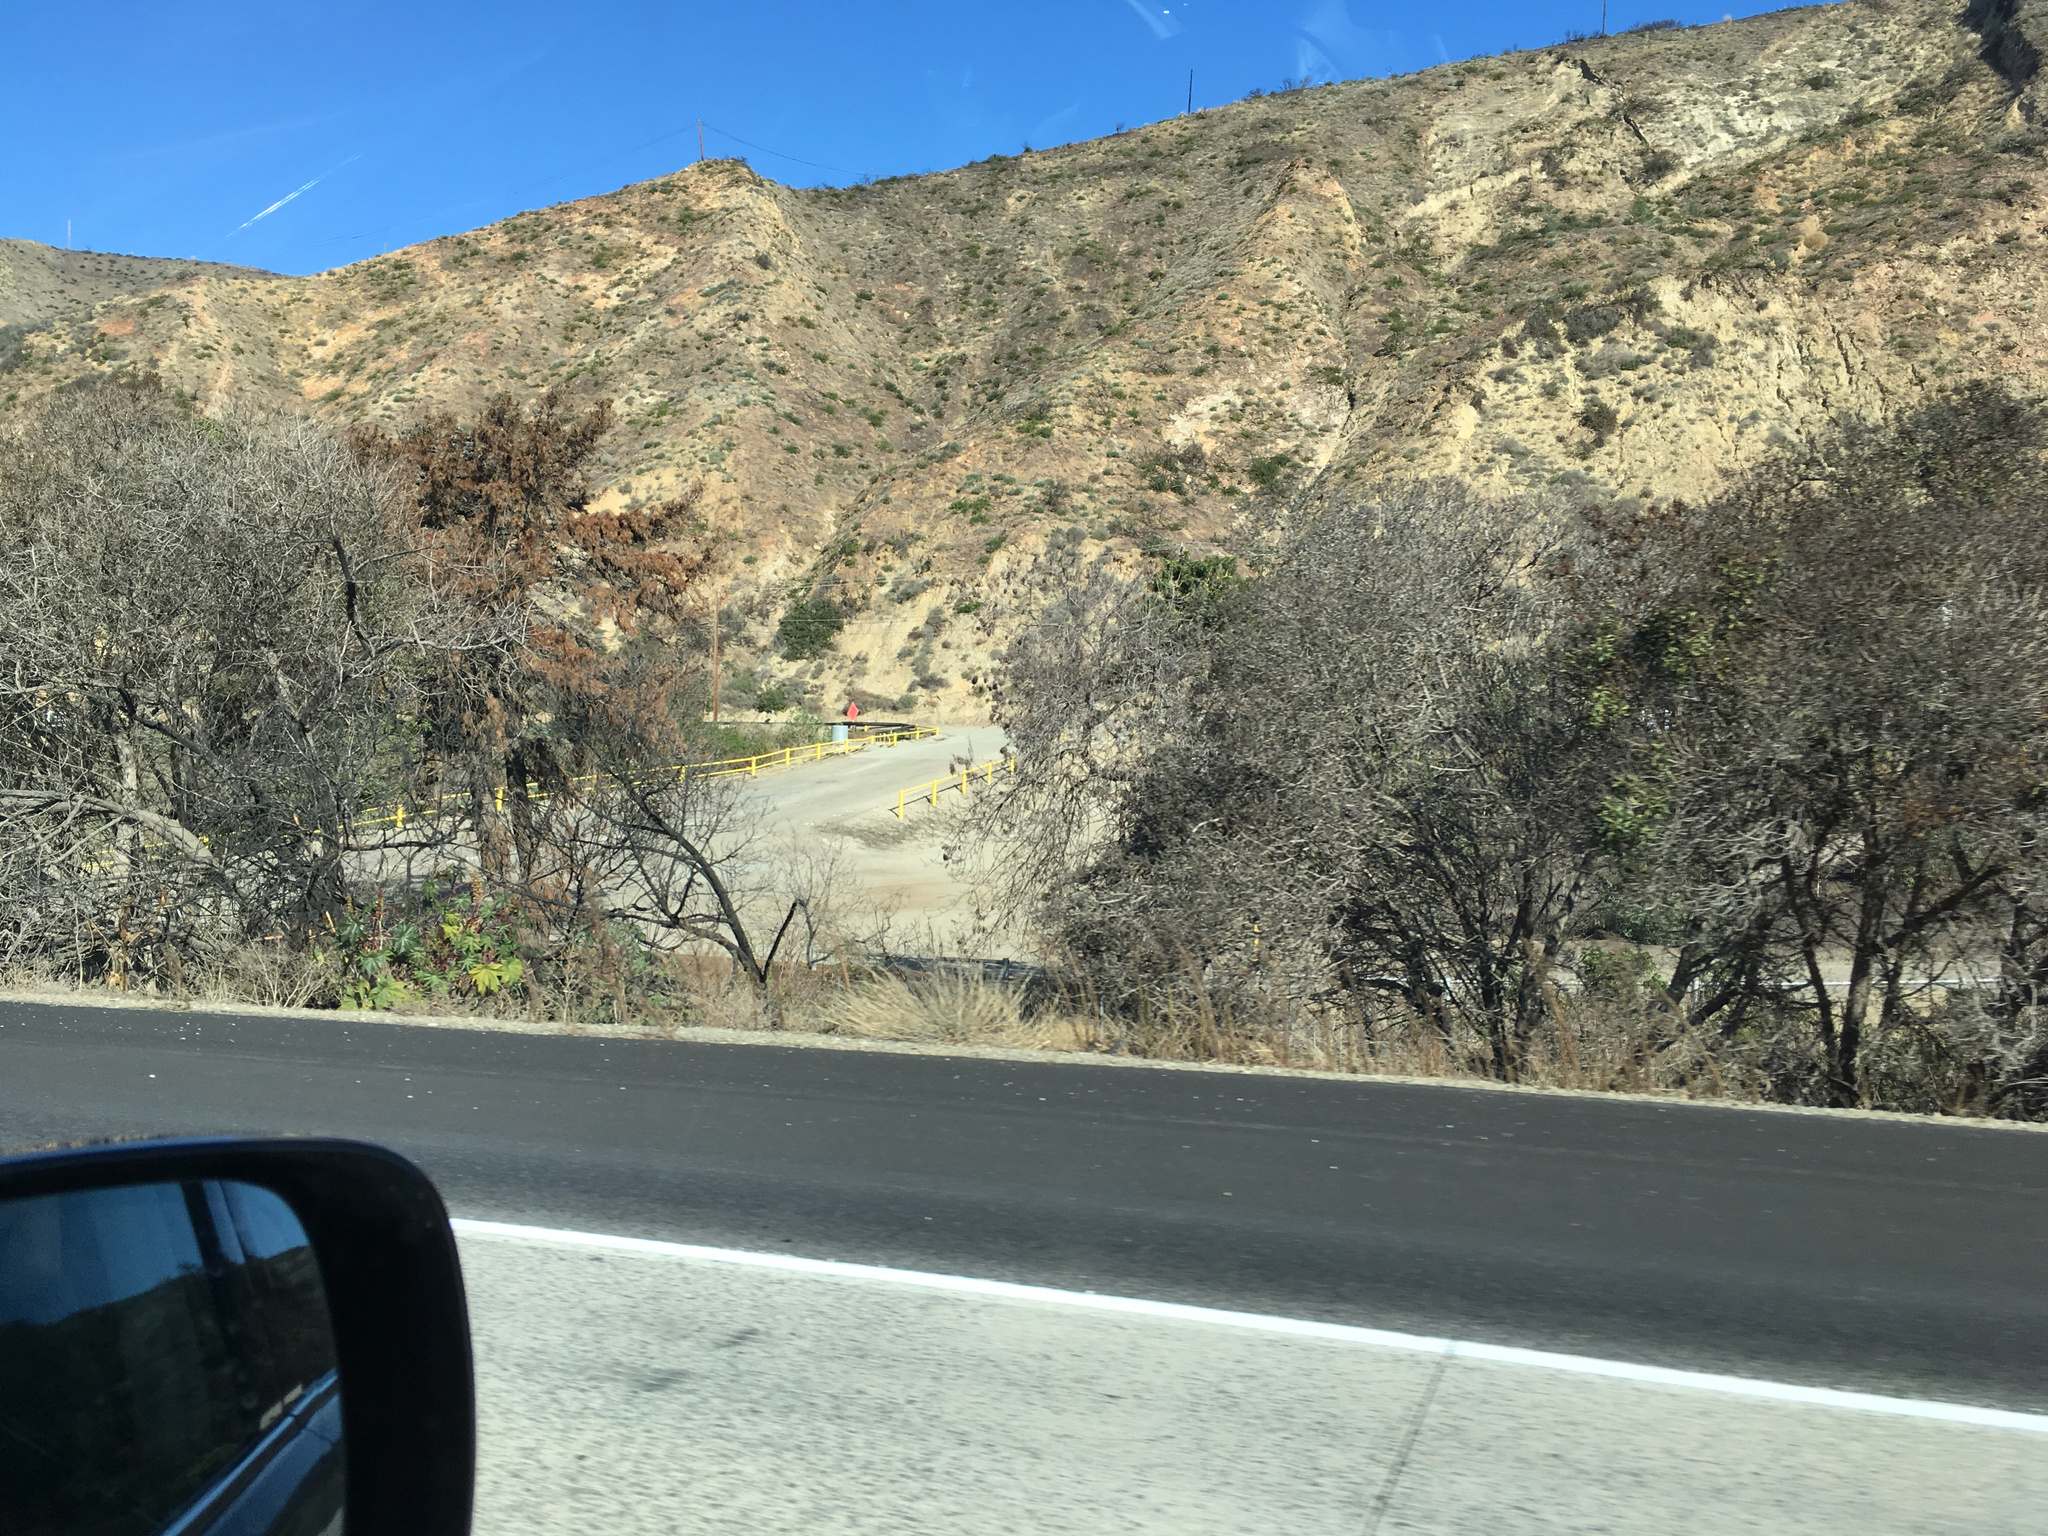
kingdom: Plantae
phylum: Tracheophyta
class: Magnoliopsida
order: Lamiales
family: Scrophulariaceae
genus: Myoporum
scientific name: Myoporum laetum
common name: Ngaio tree
